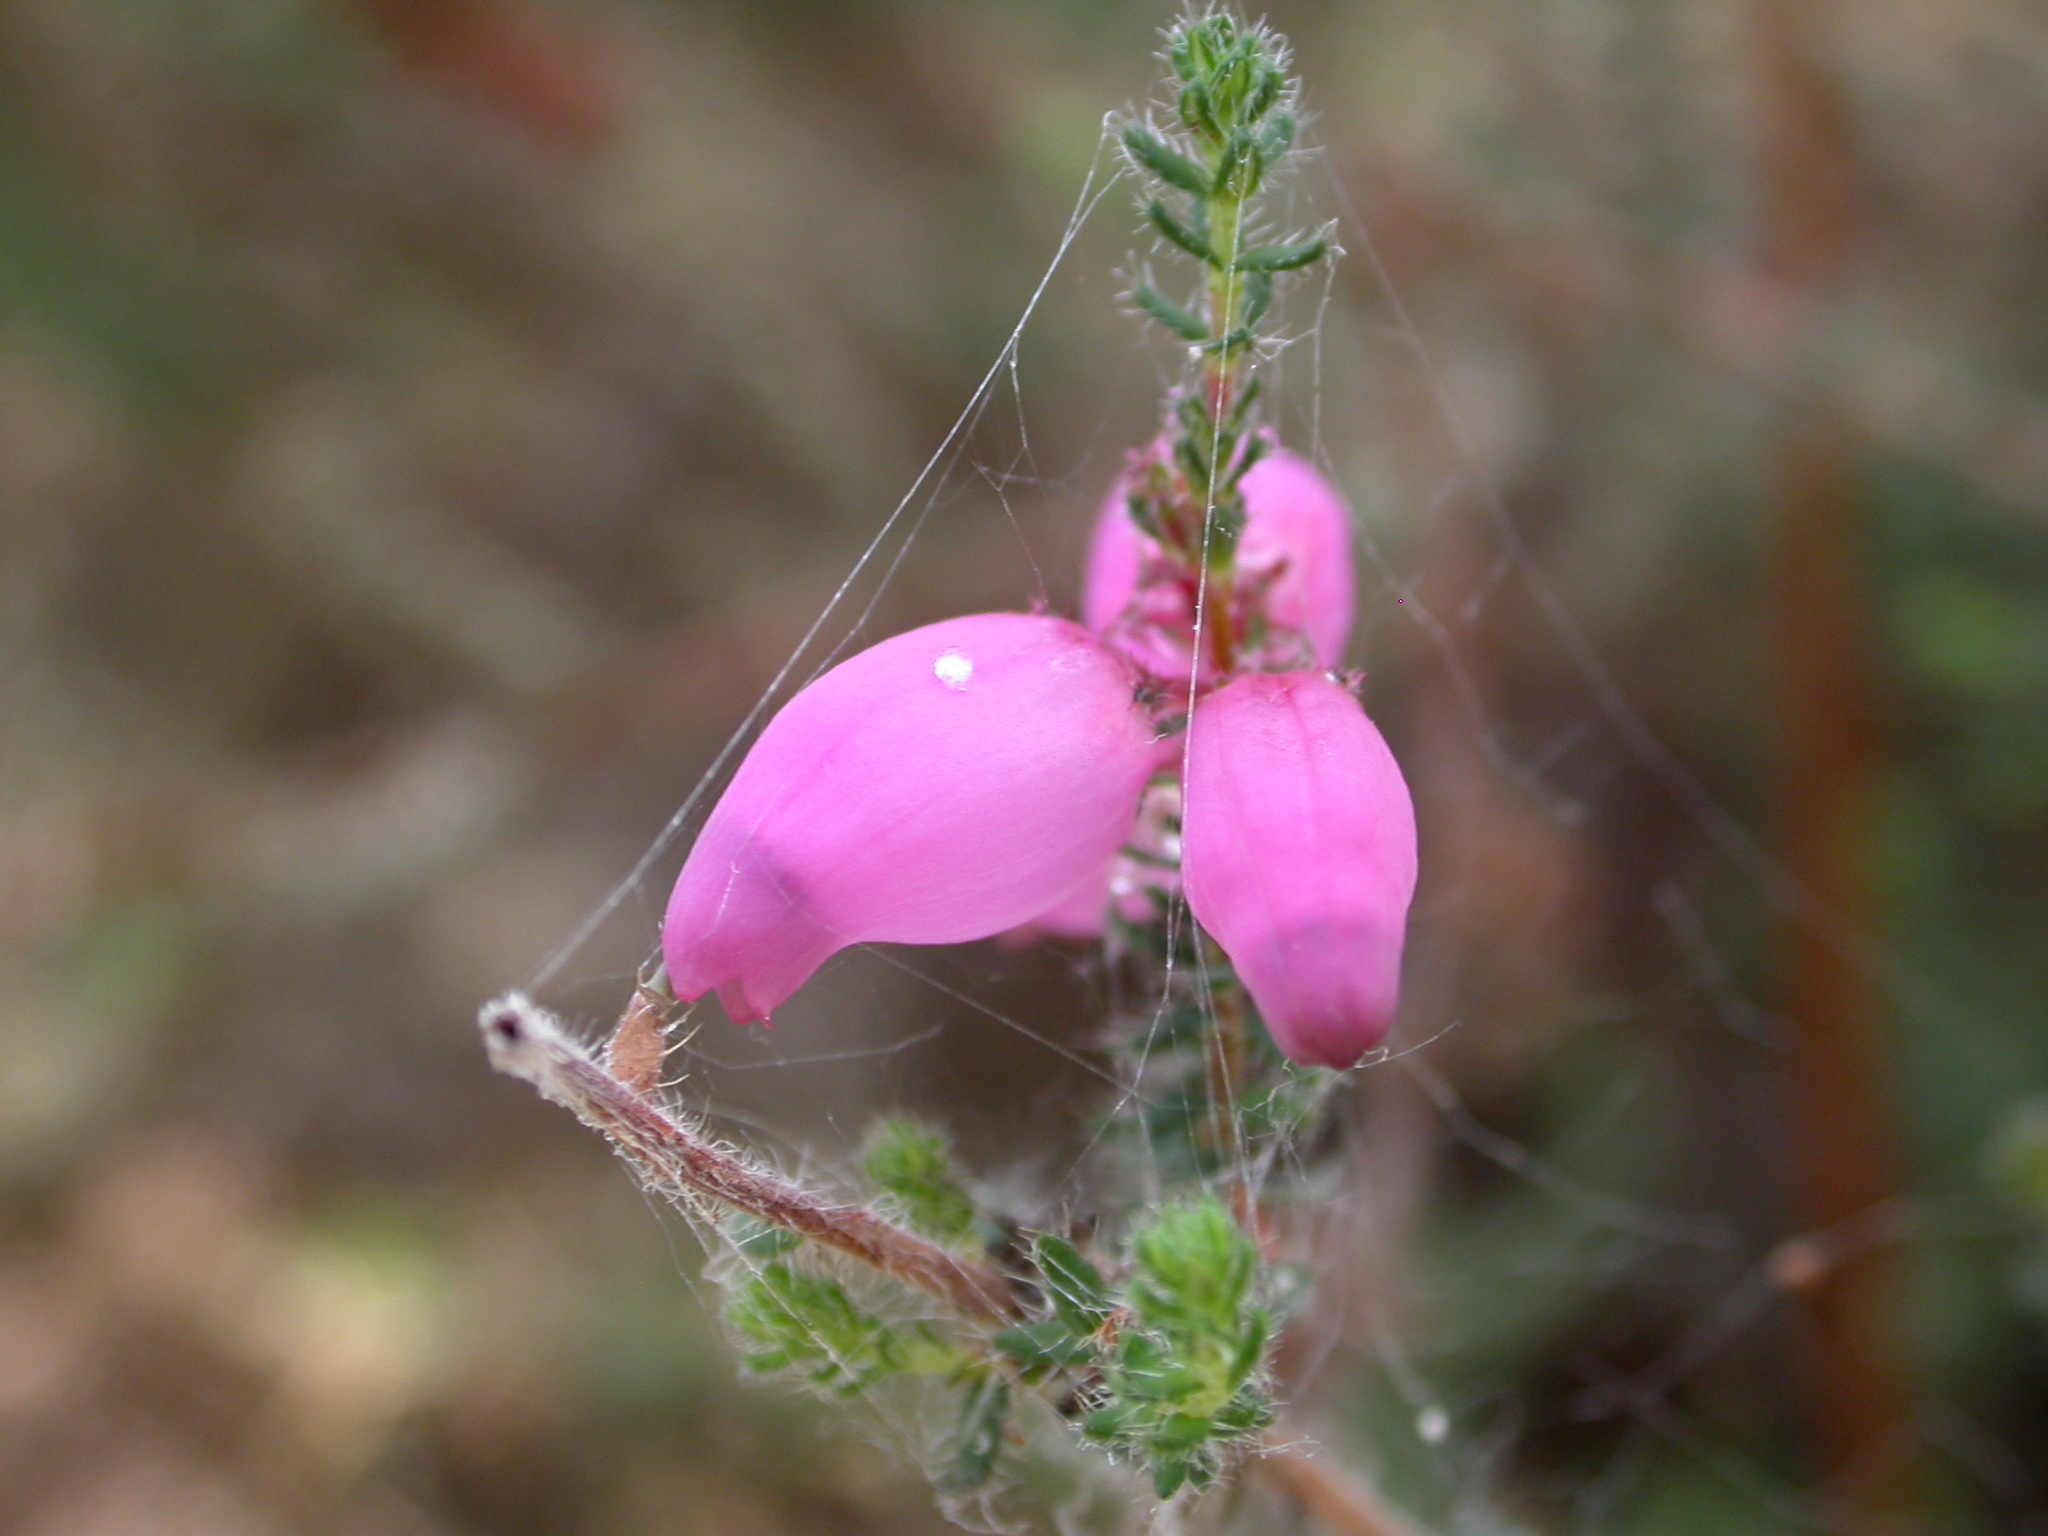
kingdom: Plantae
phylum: Tracheophyta
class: Magnoliopsida
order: Ericales
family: Ericaceae
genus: Erica
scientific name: Erica ciliaris
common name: Dorset heath
